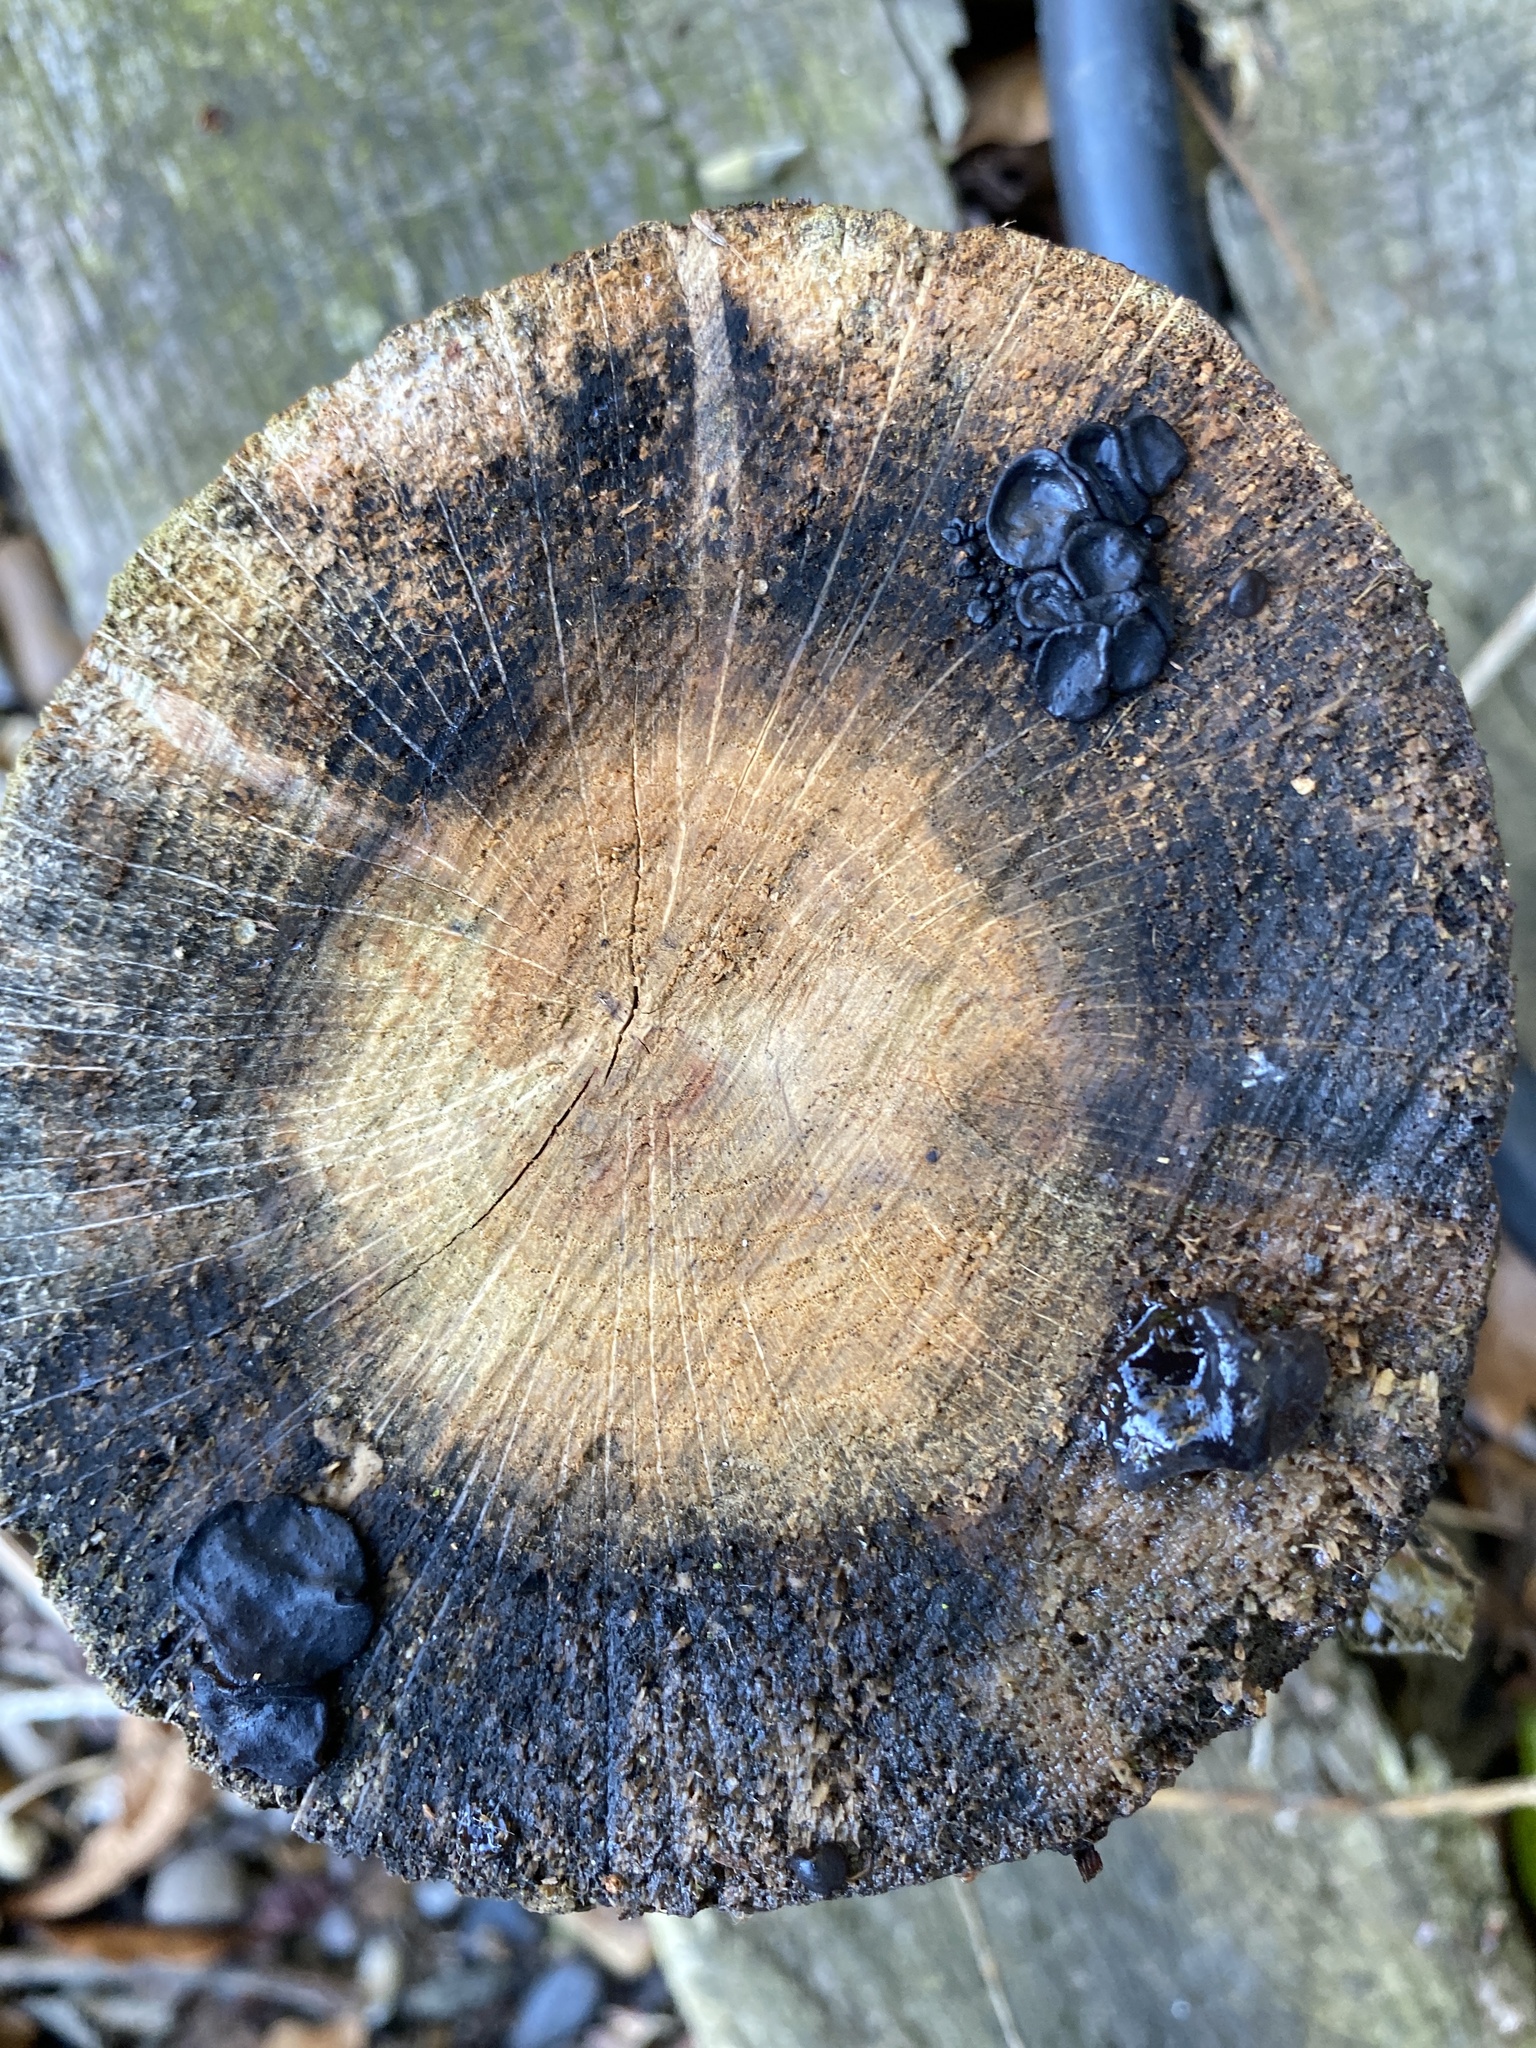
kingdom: Fungi
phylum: Basidiomycota
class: Agaricomycetes
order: Auriculariales
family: Auriculariaceae
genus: Exidia
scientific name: Exidia glandulosa
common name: Witches' butter
